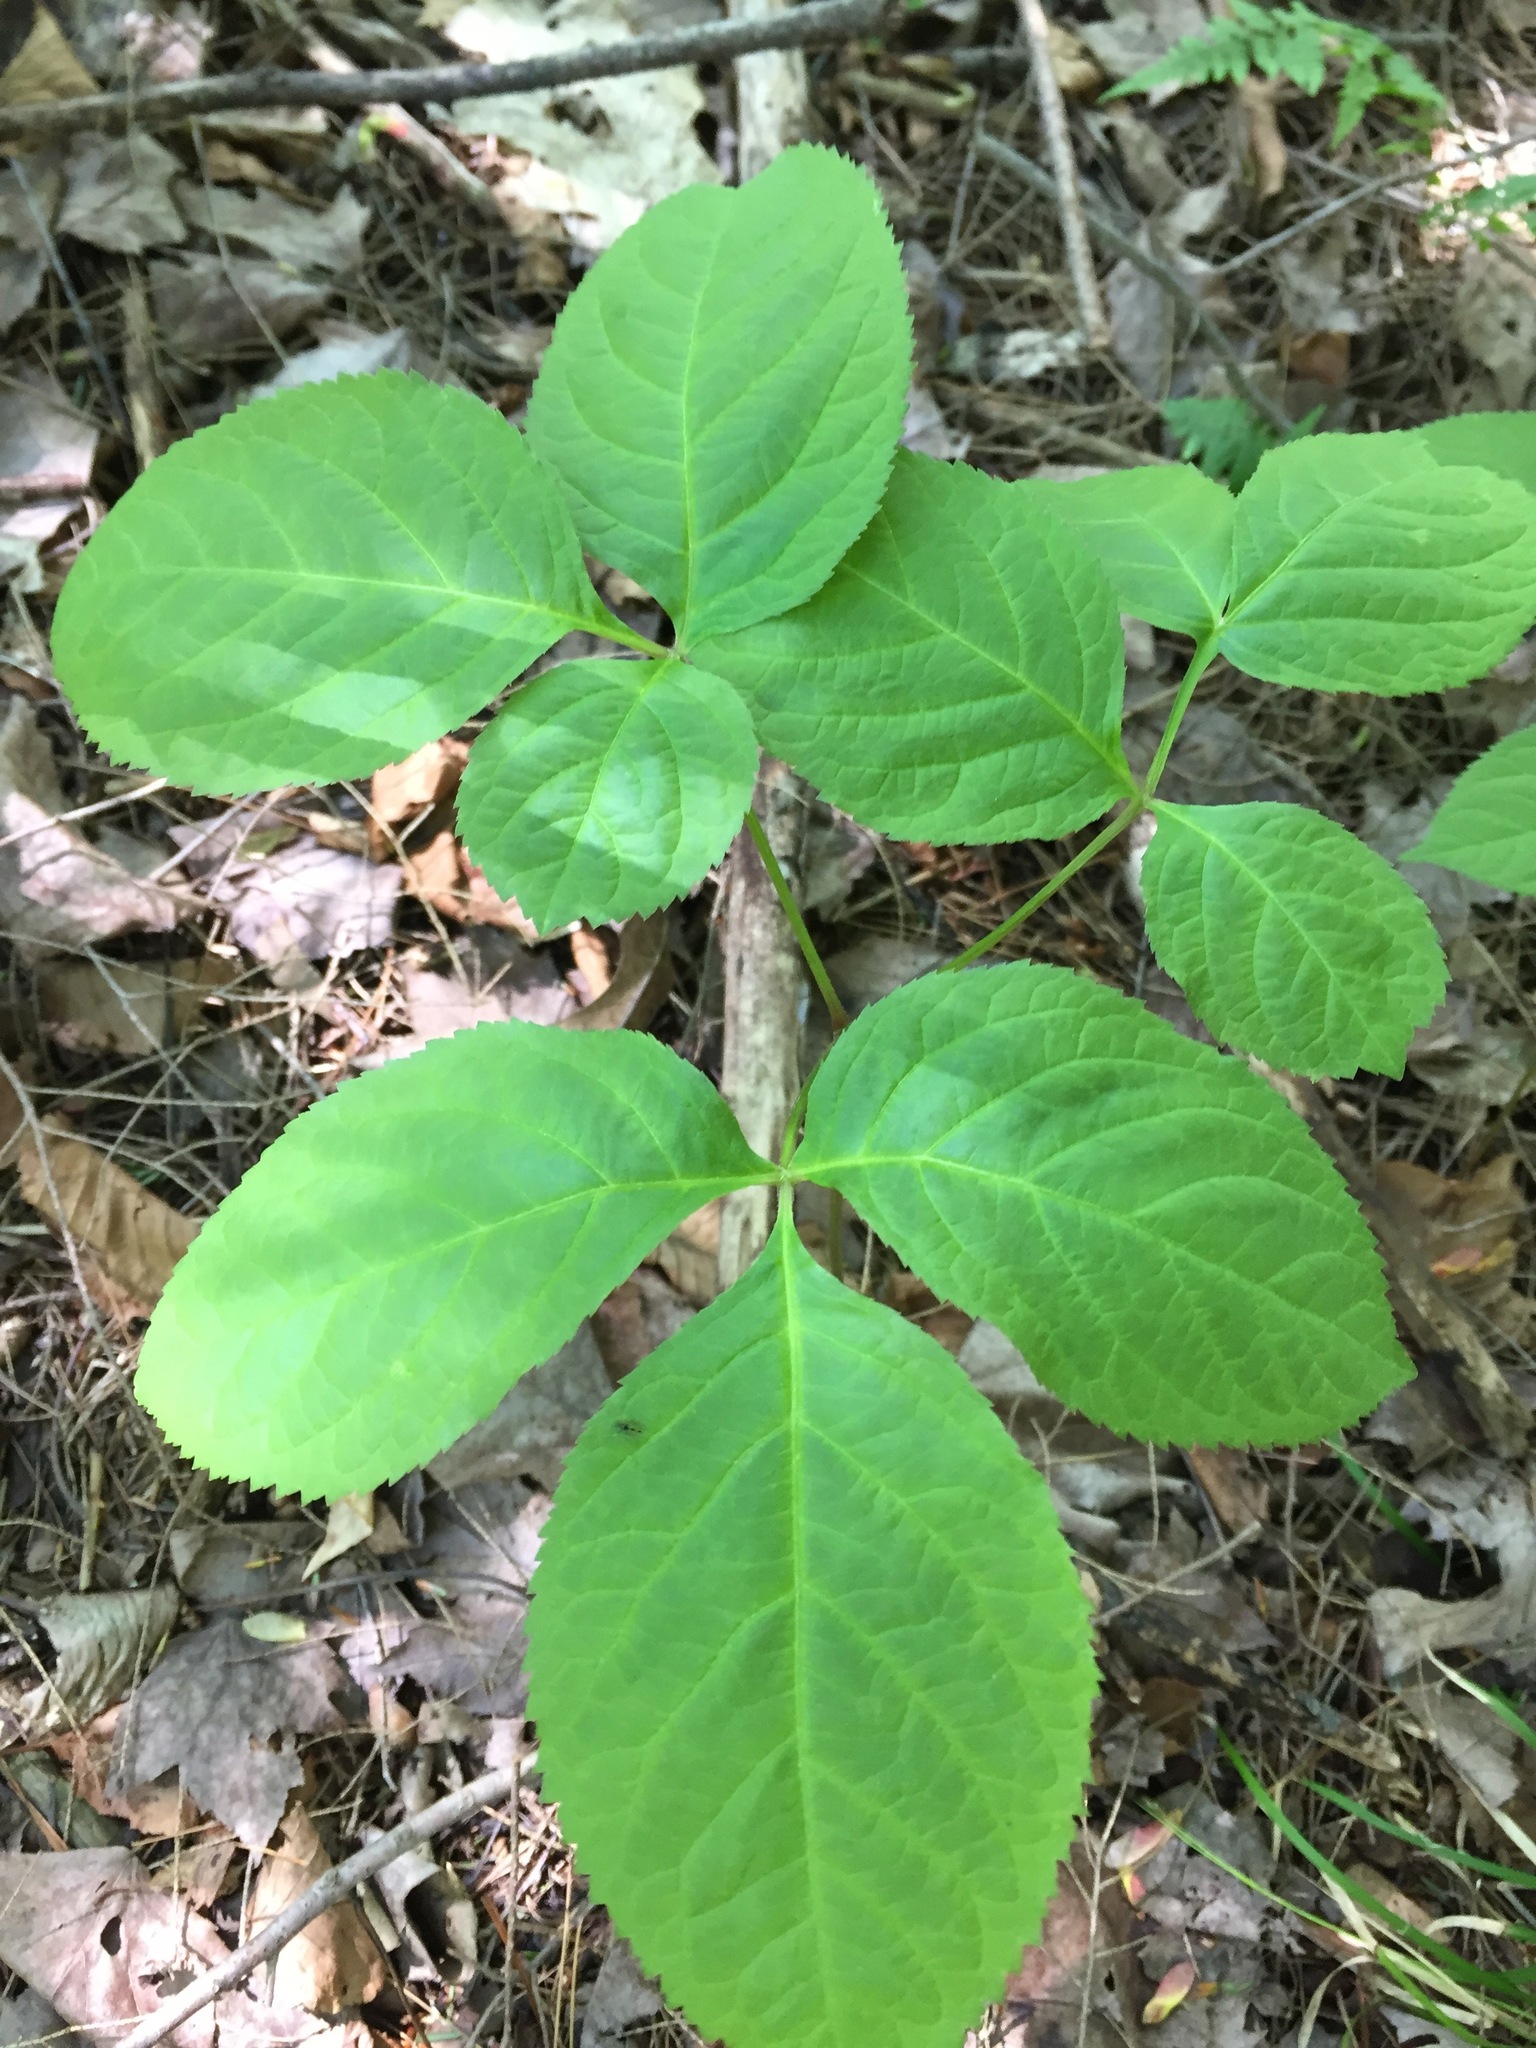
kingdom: Plantae
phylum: Tracheophyta
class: Magnoliopsida
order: Apiales
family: Araliaceae
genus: Aralia
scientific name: Aralia nudicaulis
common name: Wild sarsaparilla
